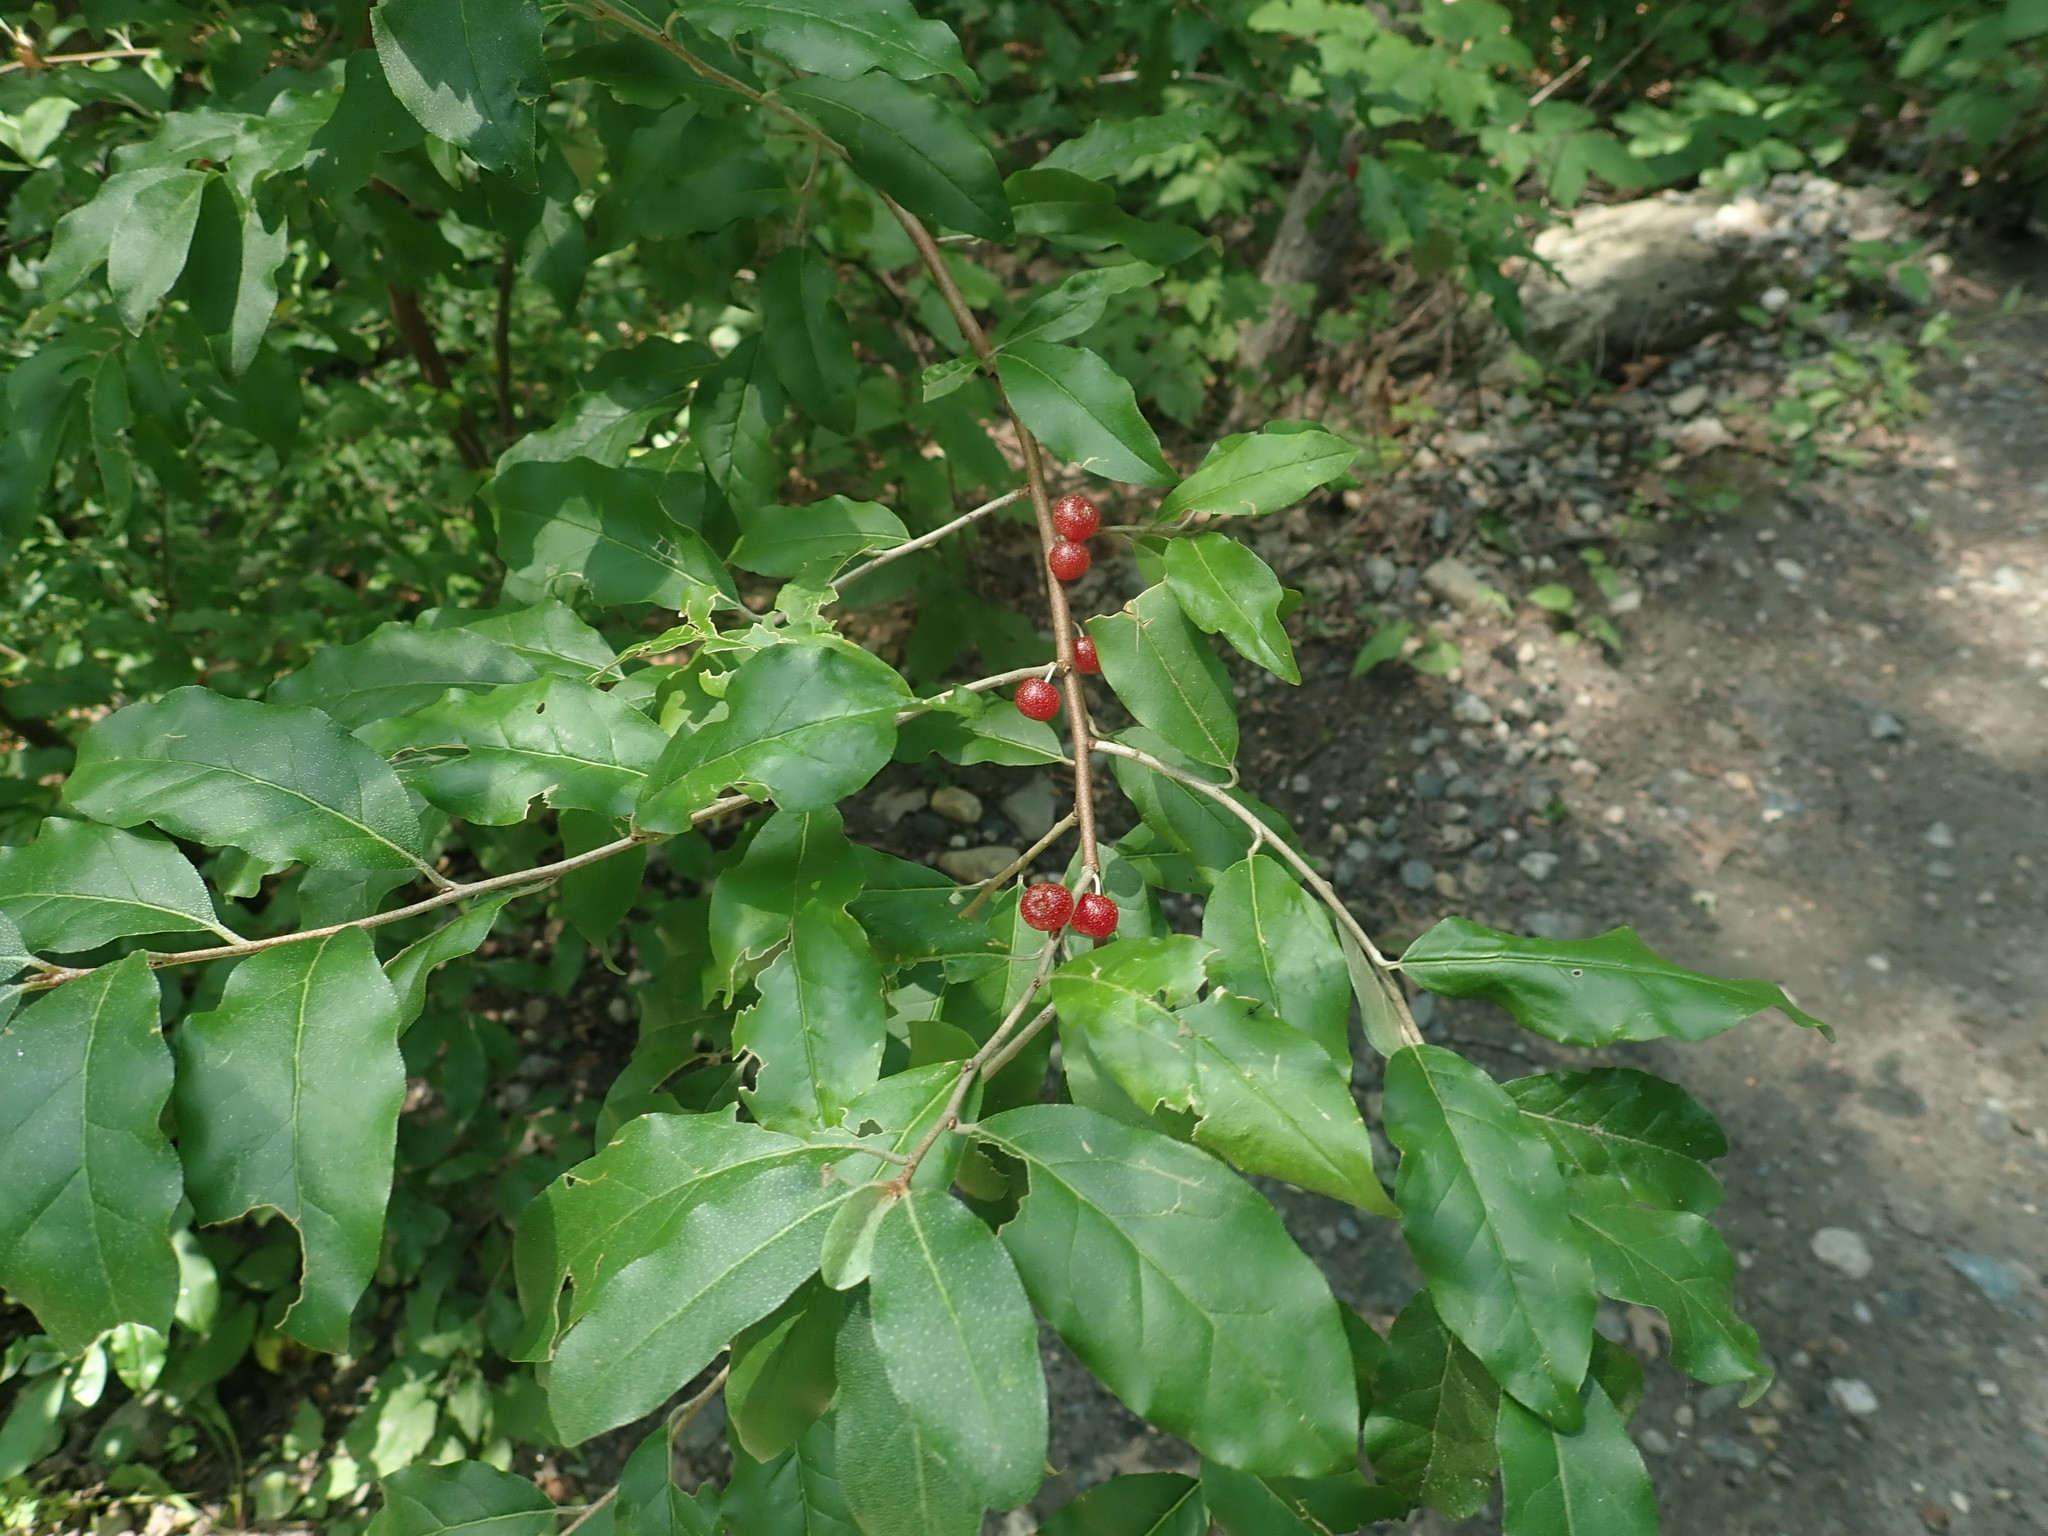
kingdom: Plantae
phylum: Tracheophyta
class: Magnoliopsida
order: Rosales
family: Elaeagnaceae
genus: Elaeagnus
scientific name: Elaeagnus umbellata
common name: Autumn olive
